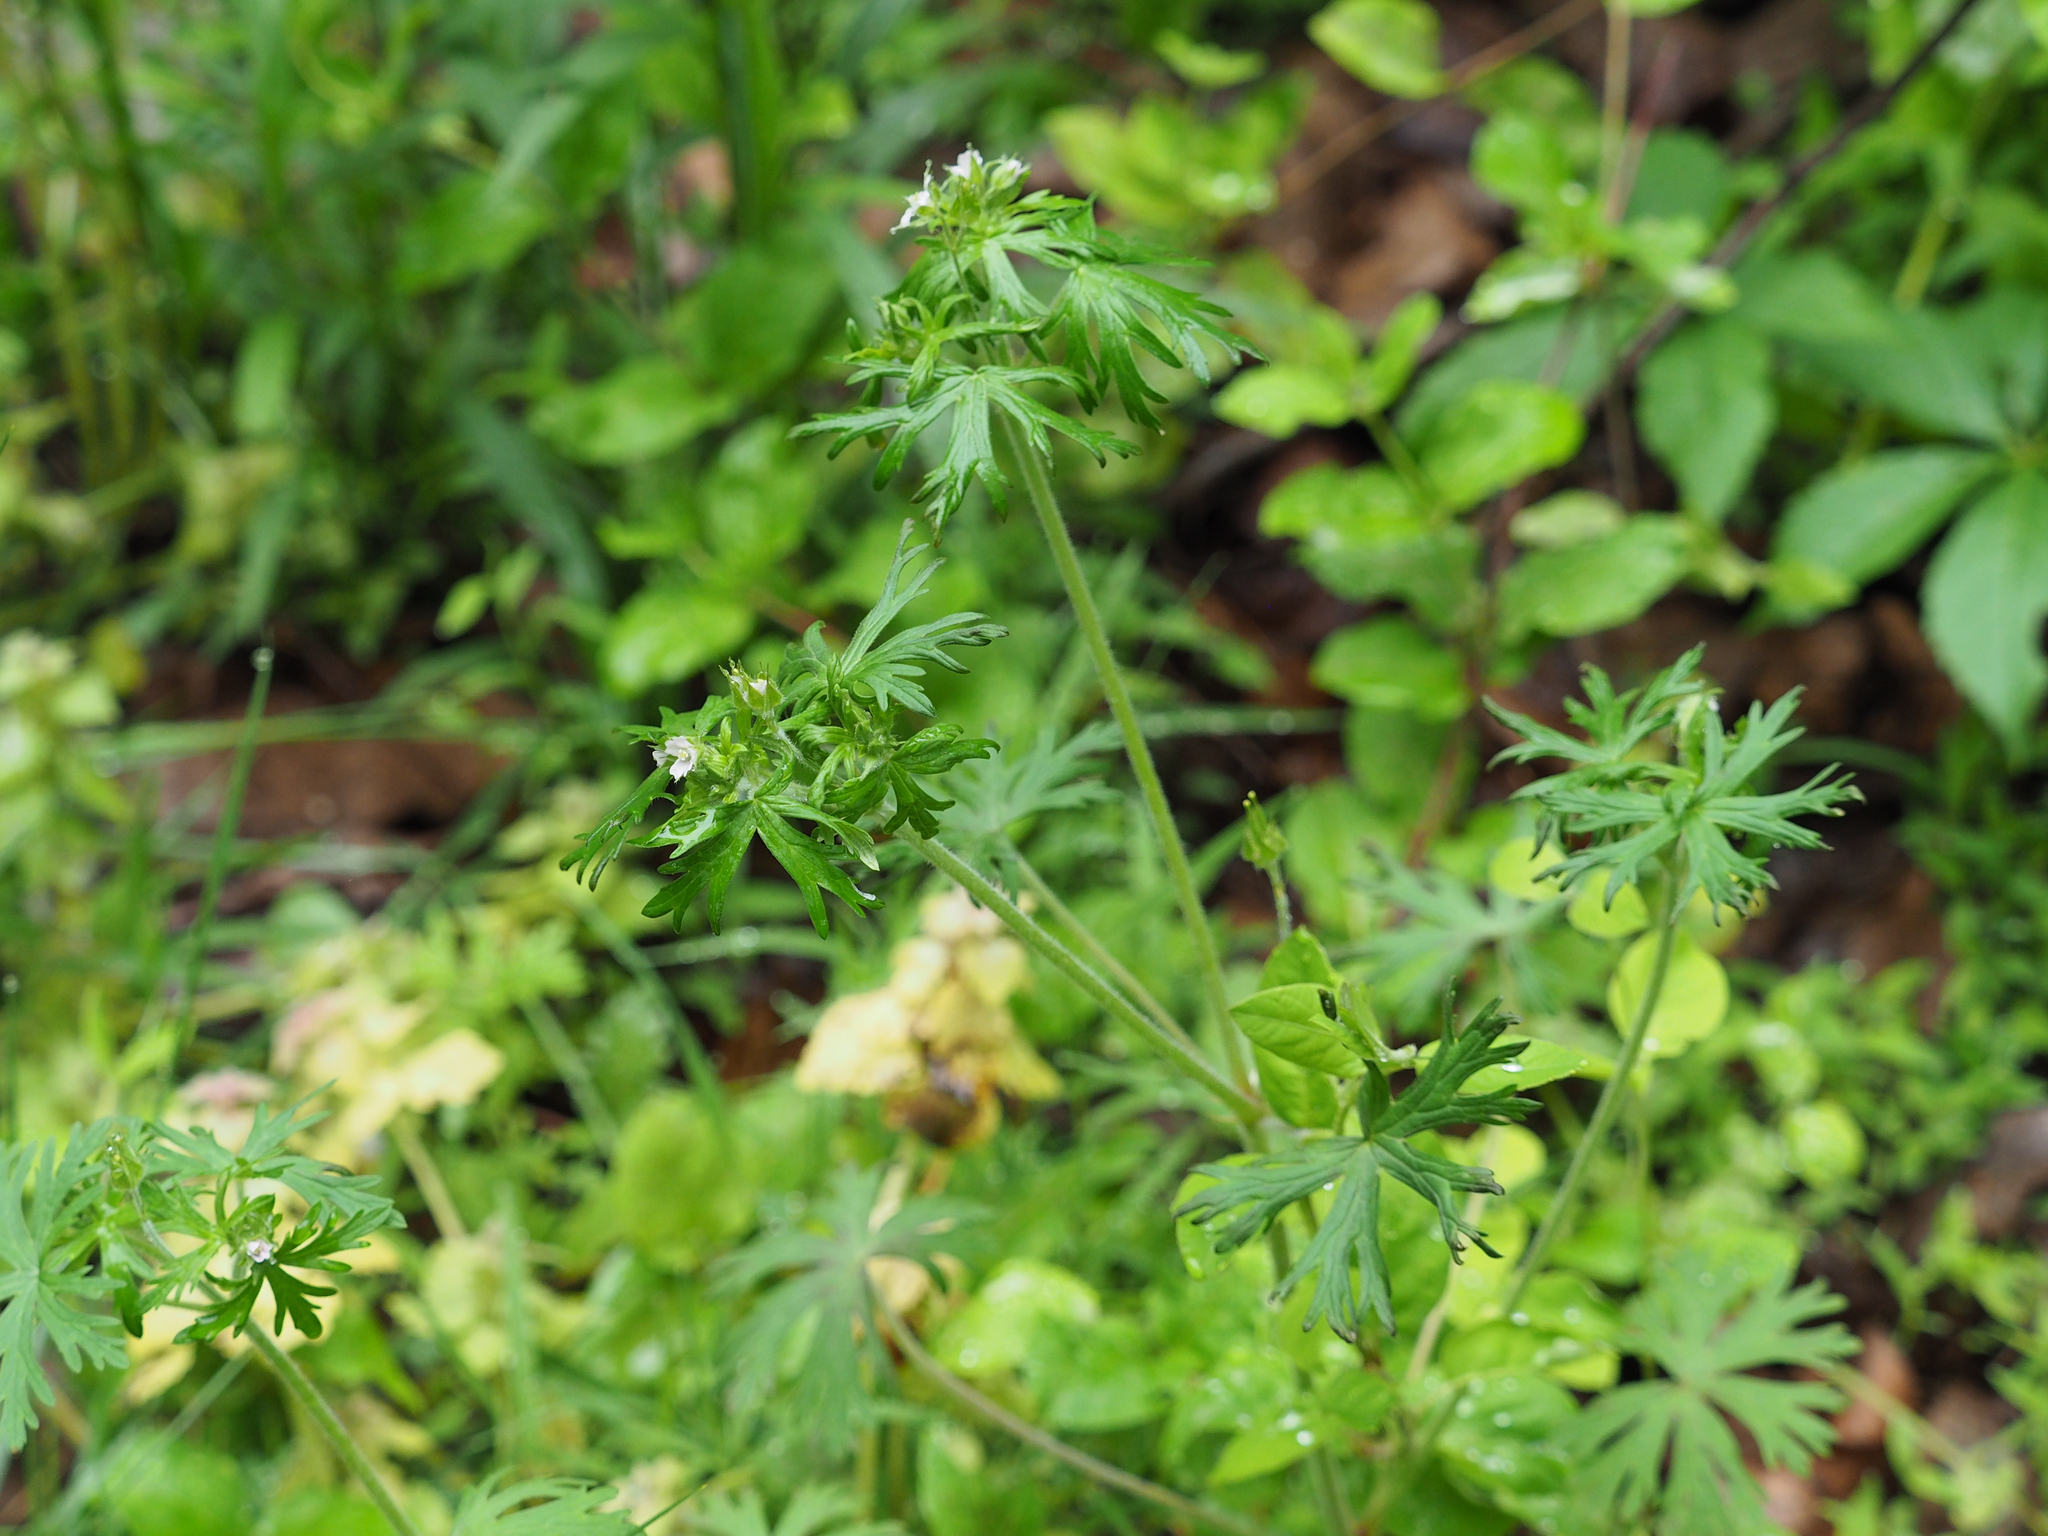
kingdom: Plantae
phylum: Tracheophyta
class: Magnoliopsida
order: Geraniales
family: Geraniaceae
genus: Geranium
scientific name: Geranium carolinianum
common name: Carolina crane's-bill
